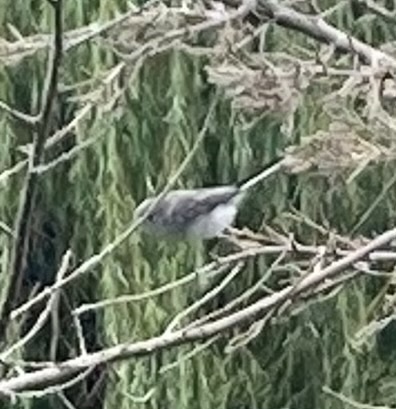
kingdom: Animalia
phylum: Chordata
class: Aves
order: Passeriformes
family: Polioptilidae
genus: Polioptila
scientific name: Polioptila caerulea
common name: Blue-gray gnatcatcher
